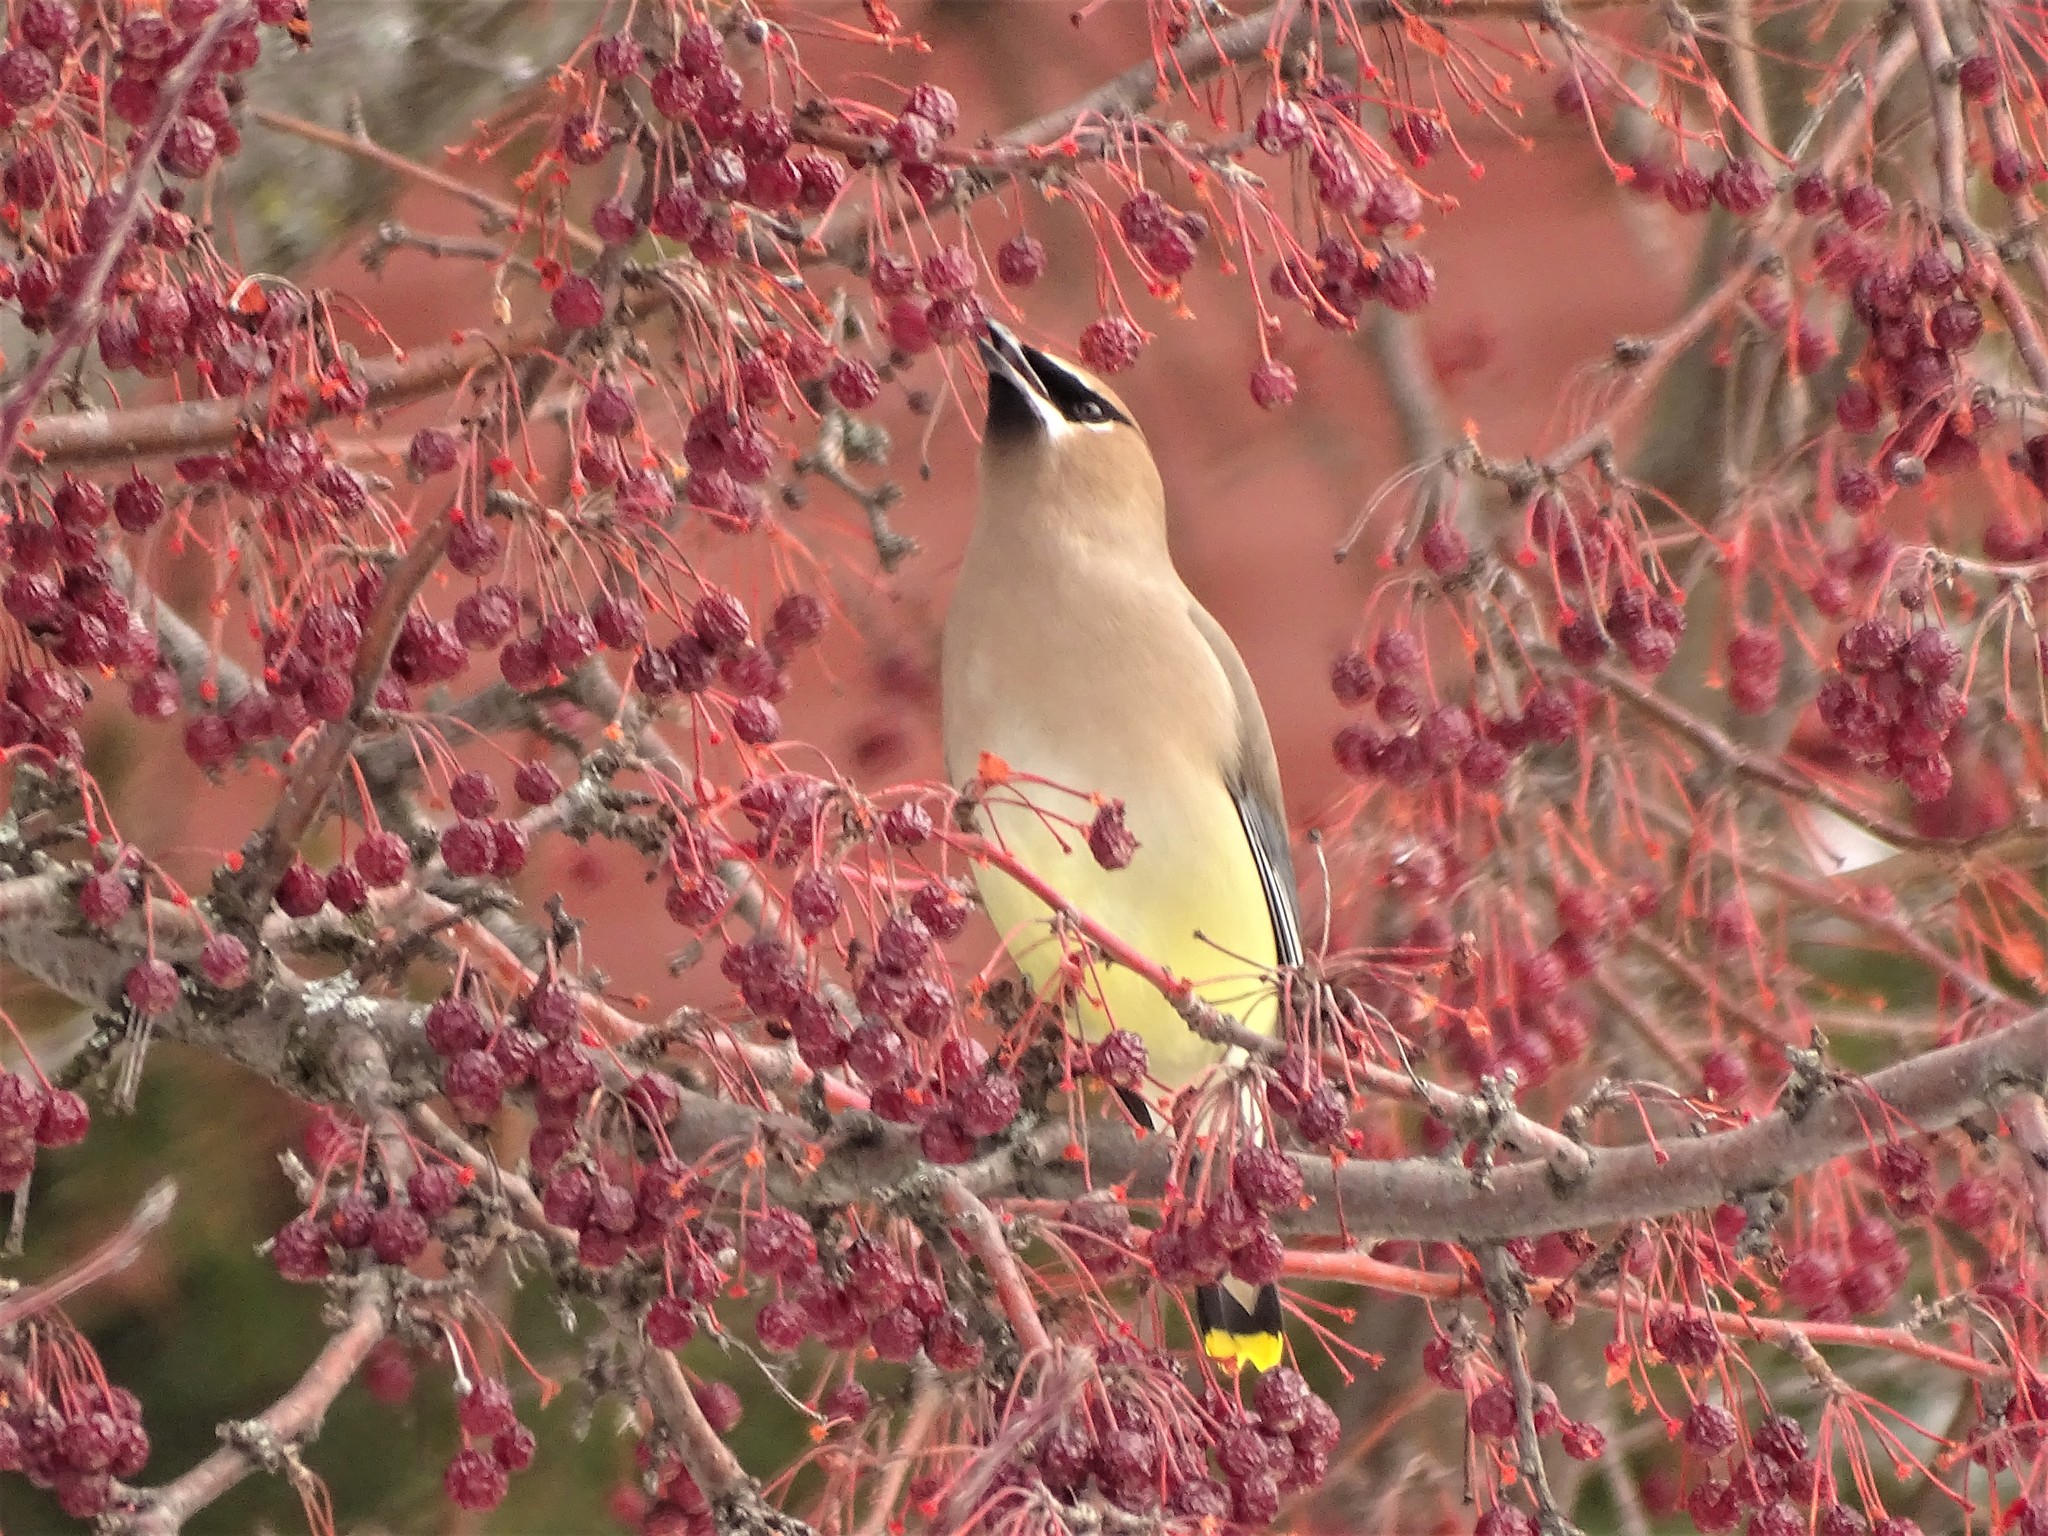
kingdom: Animalia
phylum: Chordata
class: Aves
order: Passeriformes
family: Bombycillidae
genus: Bombycilla
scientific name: Bombycilla cedrorum
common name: Cedar waxwing
